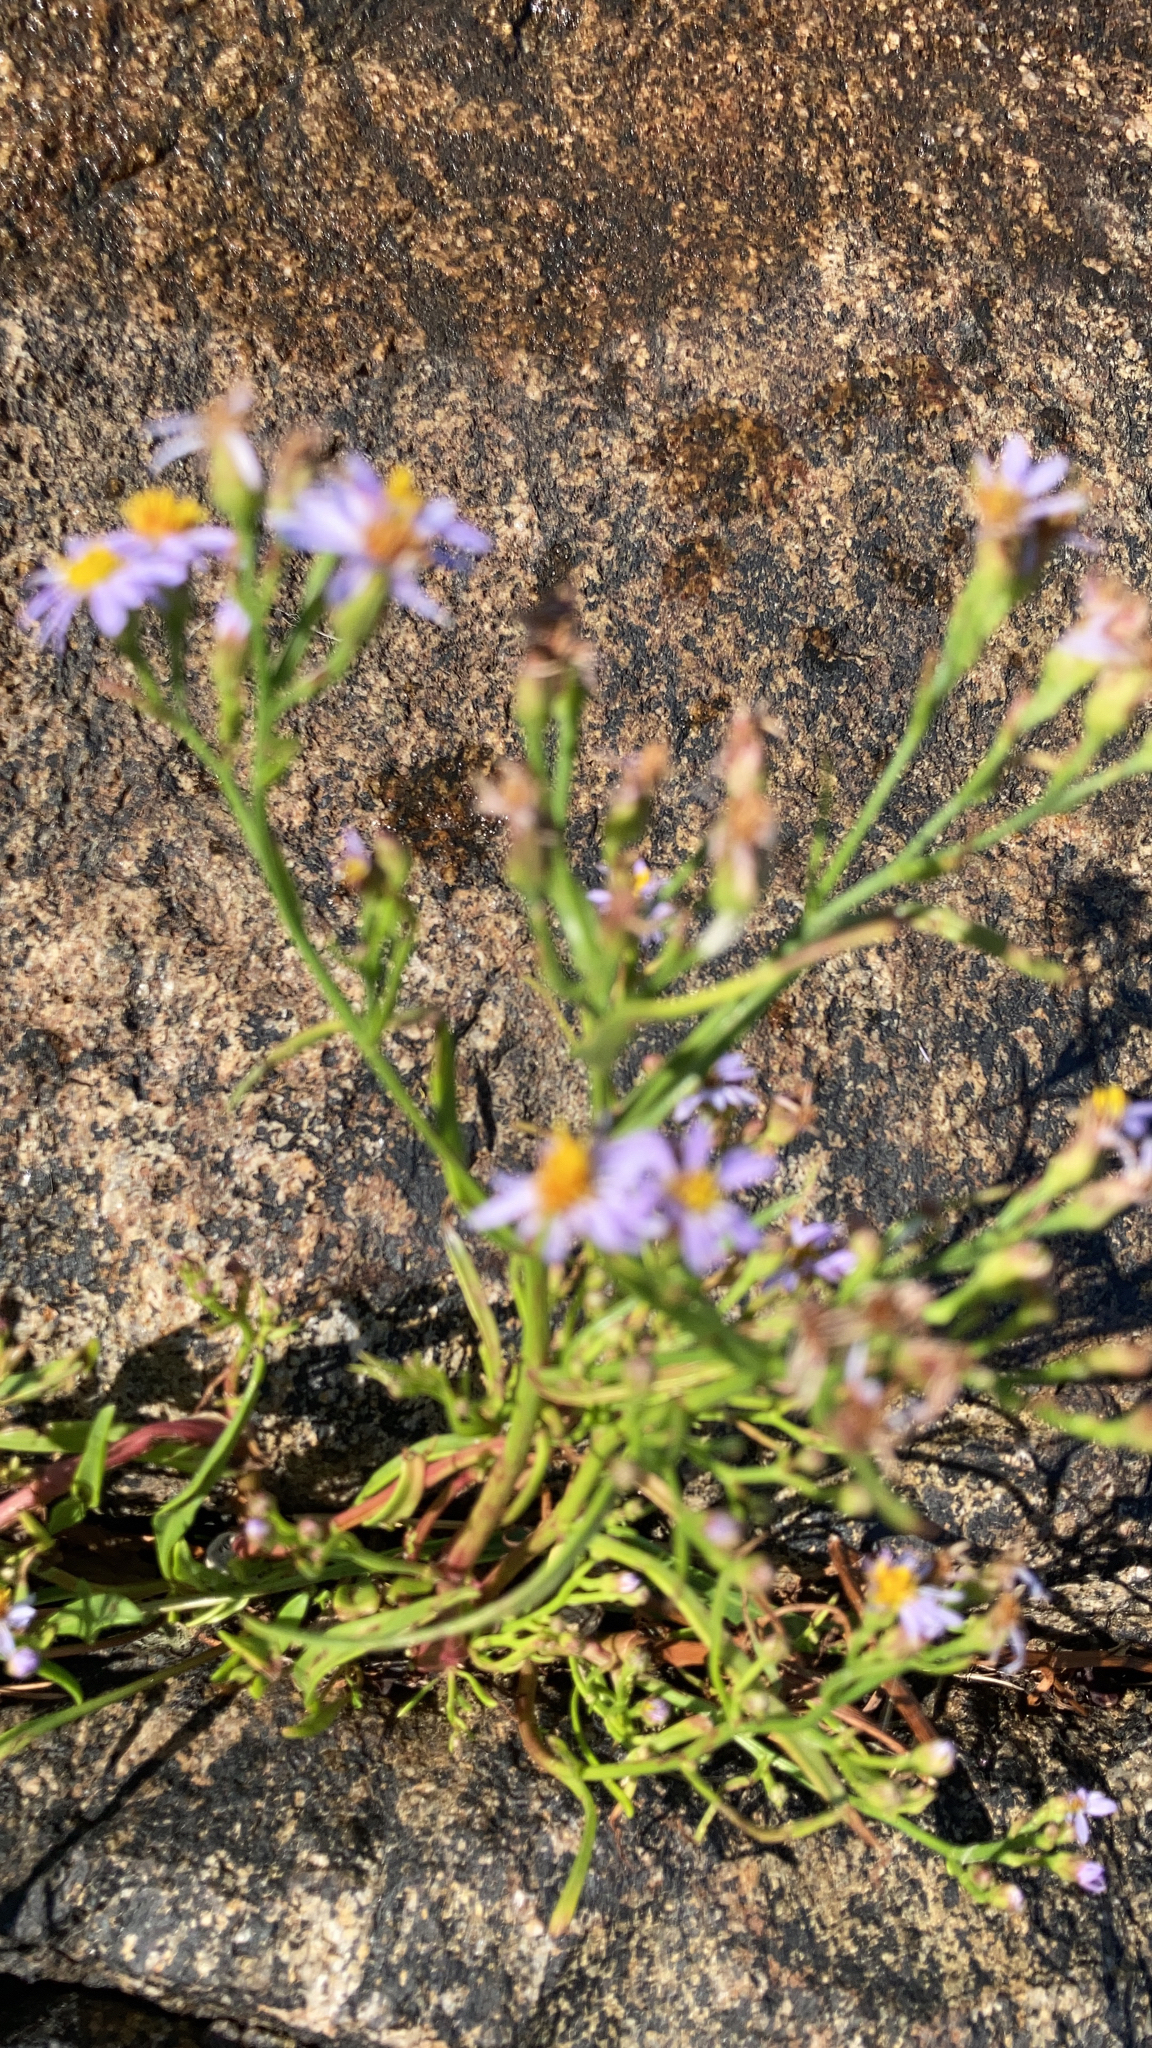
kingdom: Plantae
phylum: Tracheophyta
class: Magnoliopsida
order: Asterales
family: Asteraceae
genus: Tripolium
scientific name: Tripolium pannonicum
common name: Sea aster
